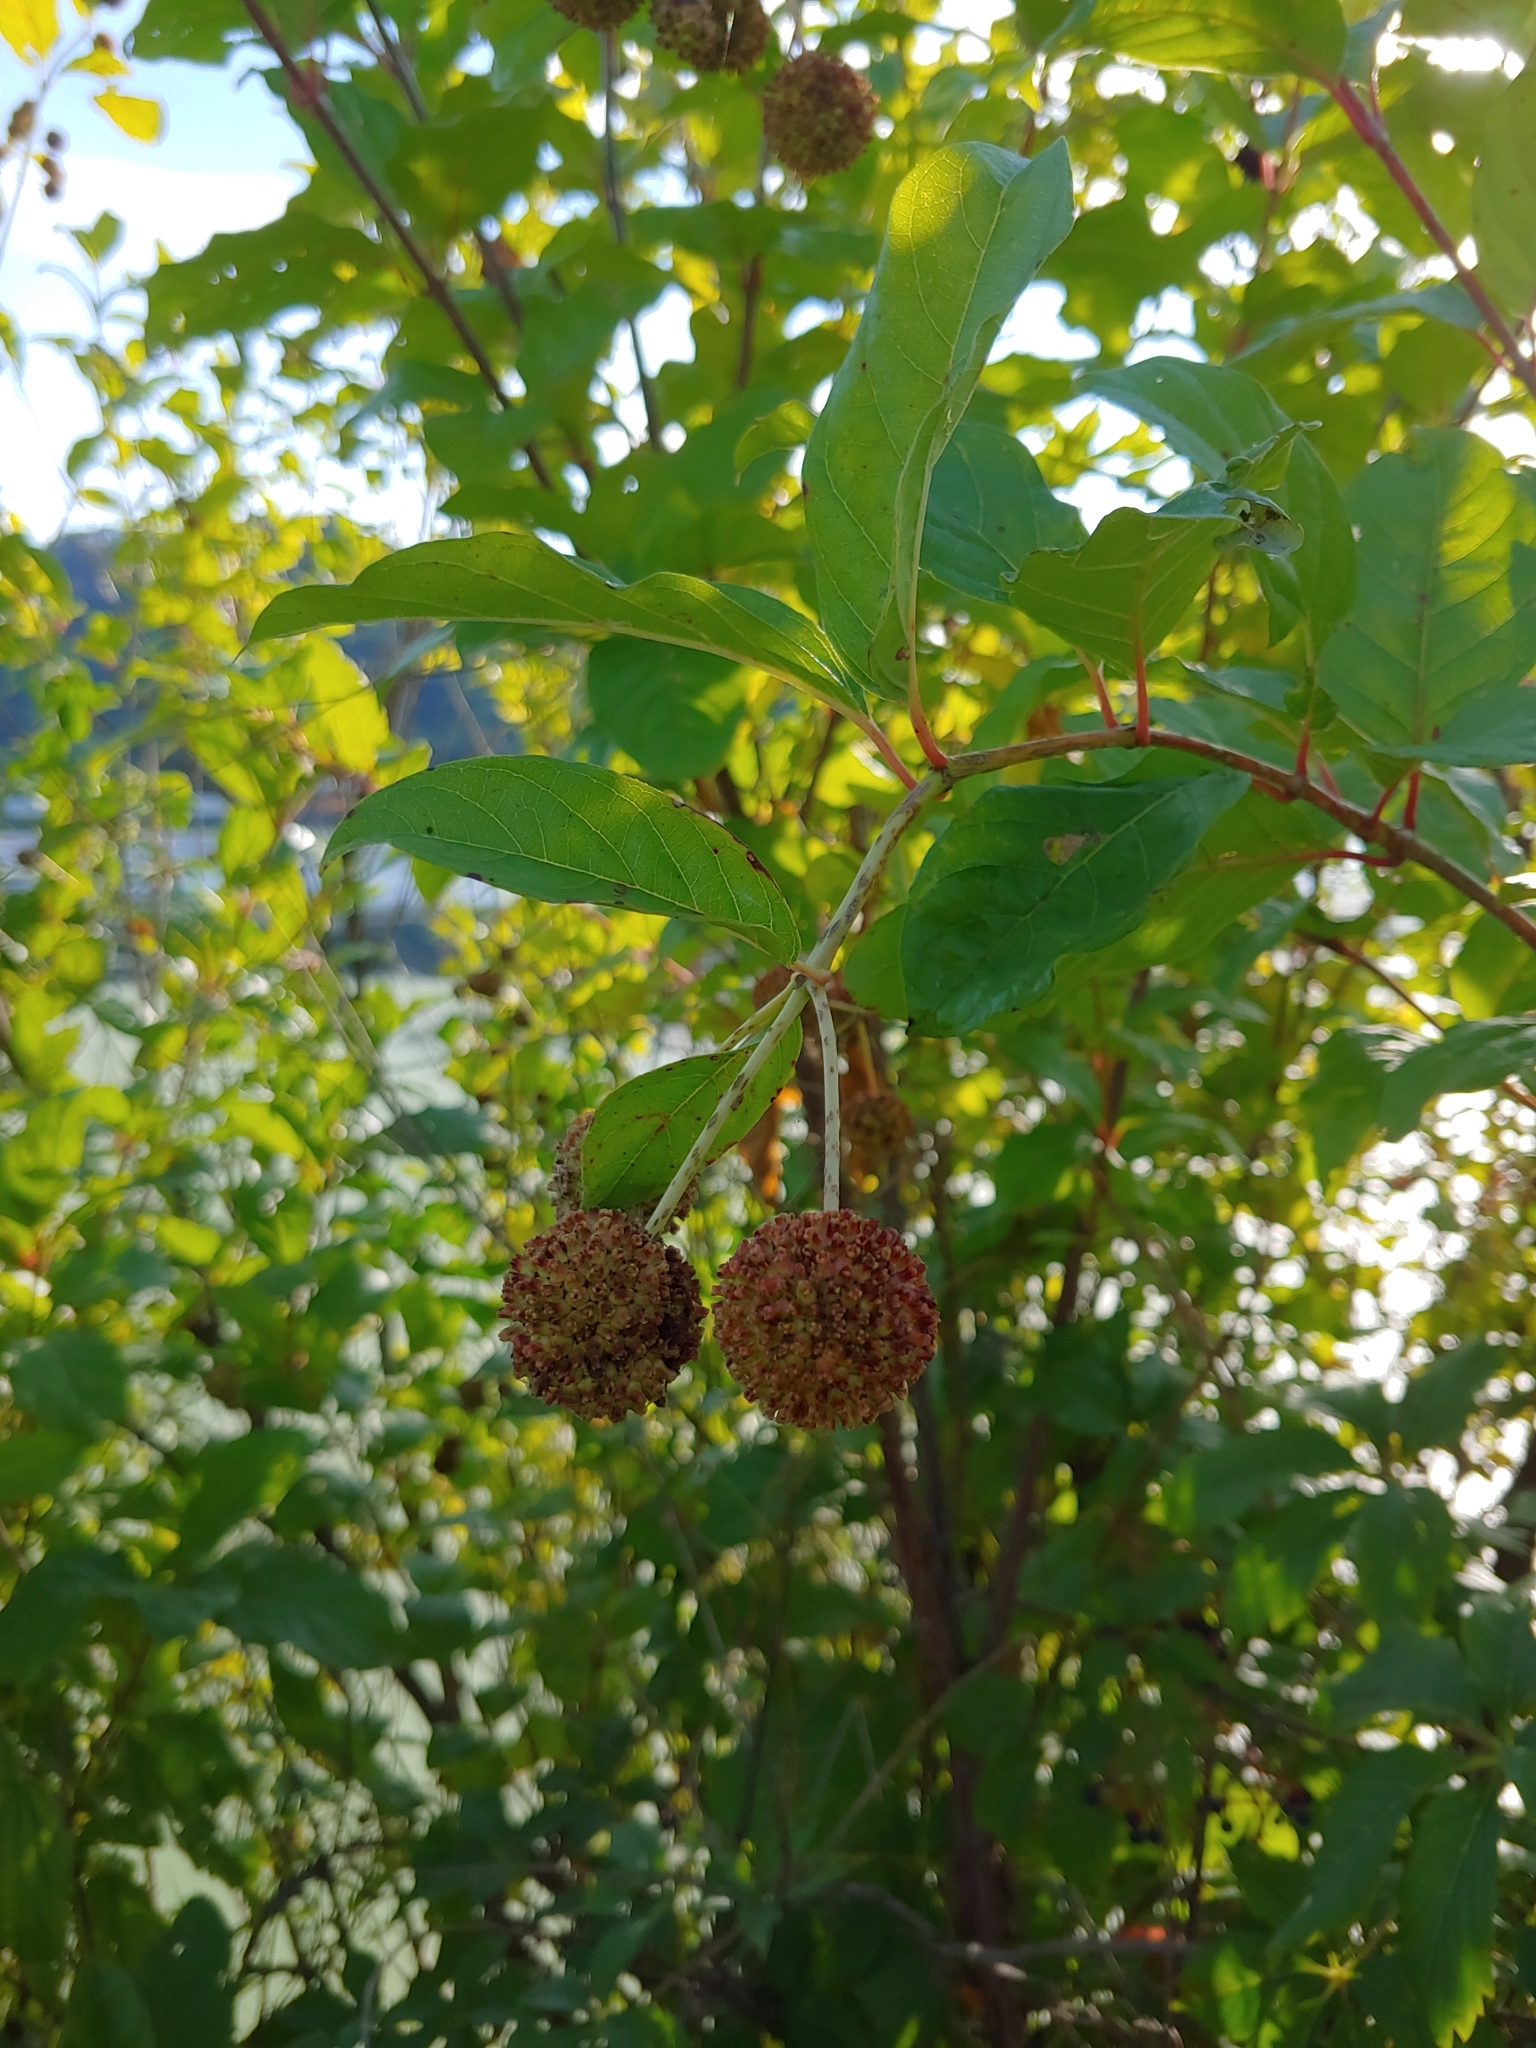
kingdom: Plantae
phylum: Tracheophyta
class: Magnoliopsida
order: Gentianales
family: Rubiaceae
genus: Cephalanthus
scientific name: Cephalanthus occidentalis
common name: Button-willow
